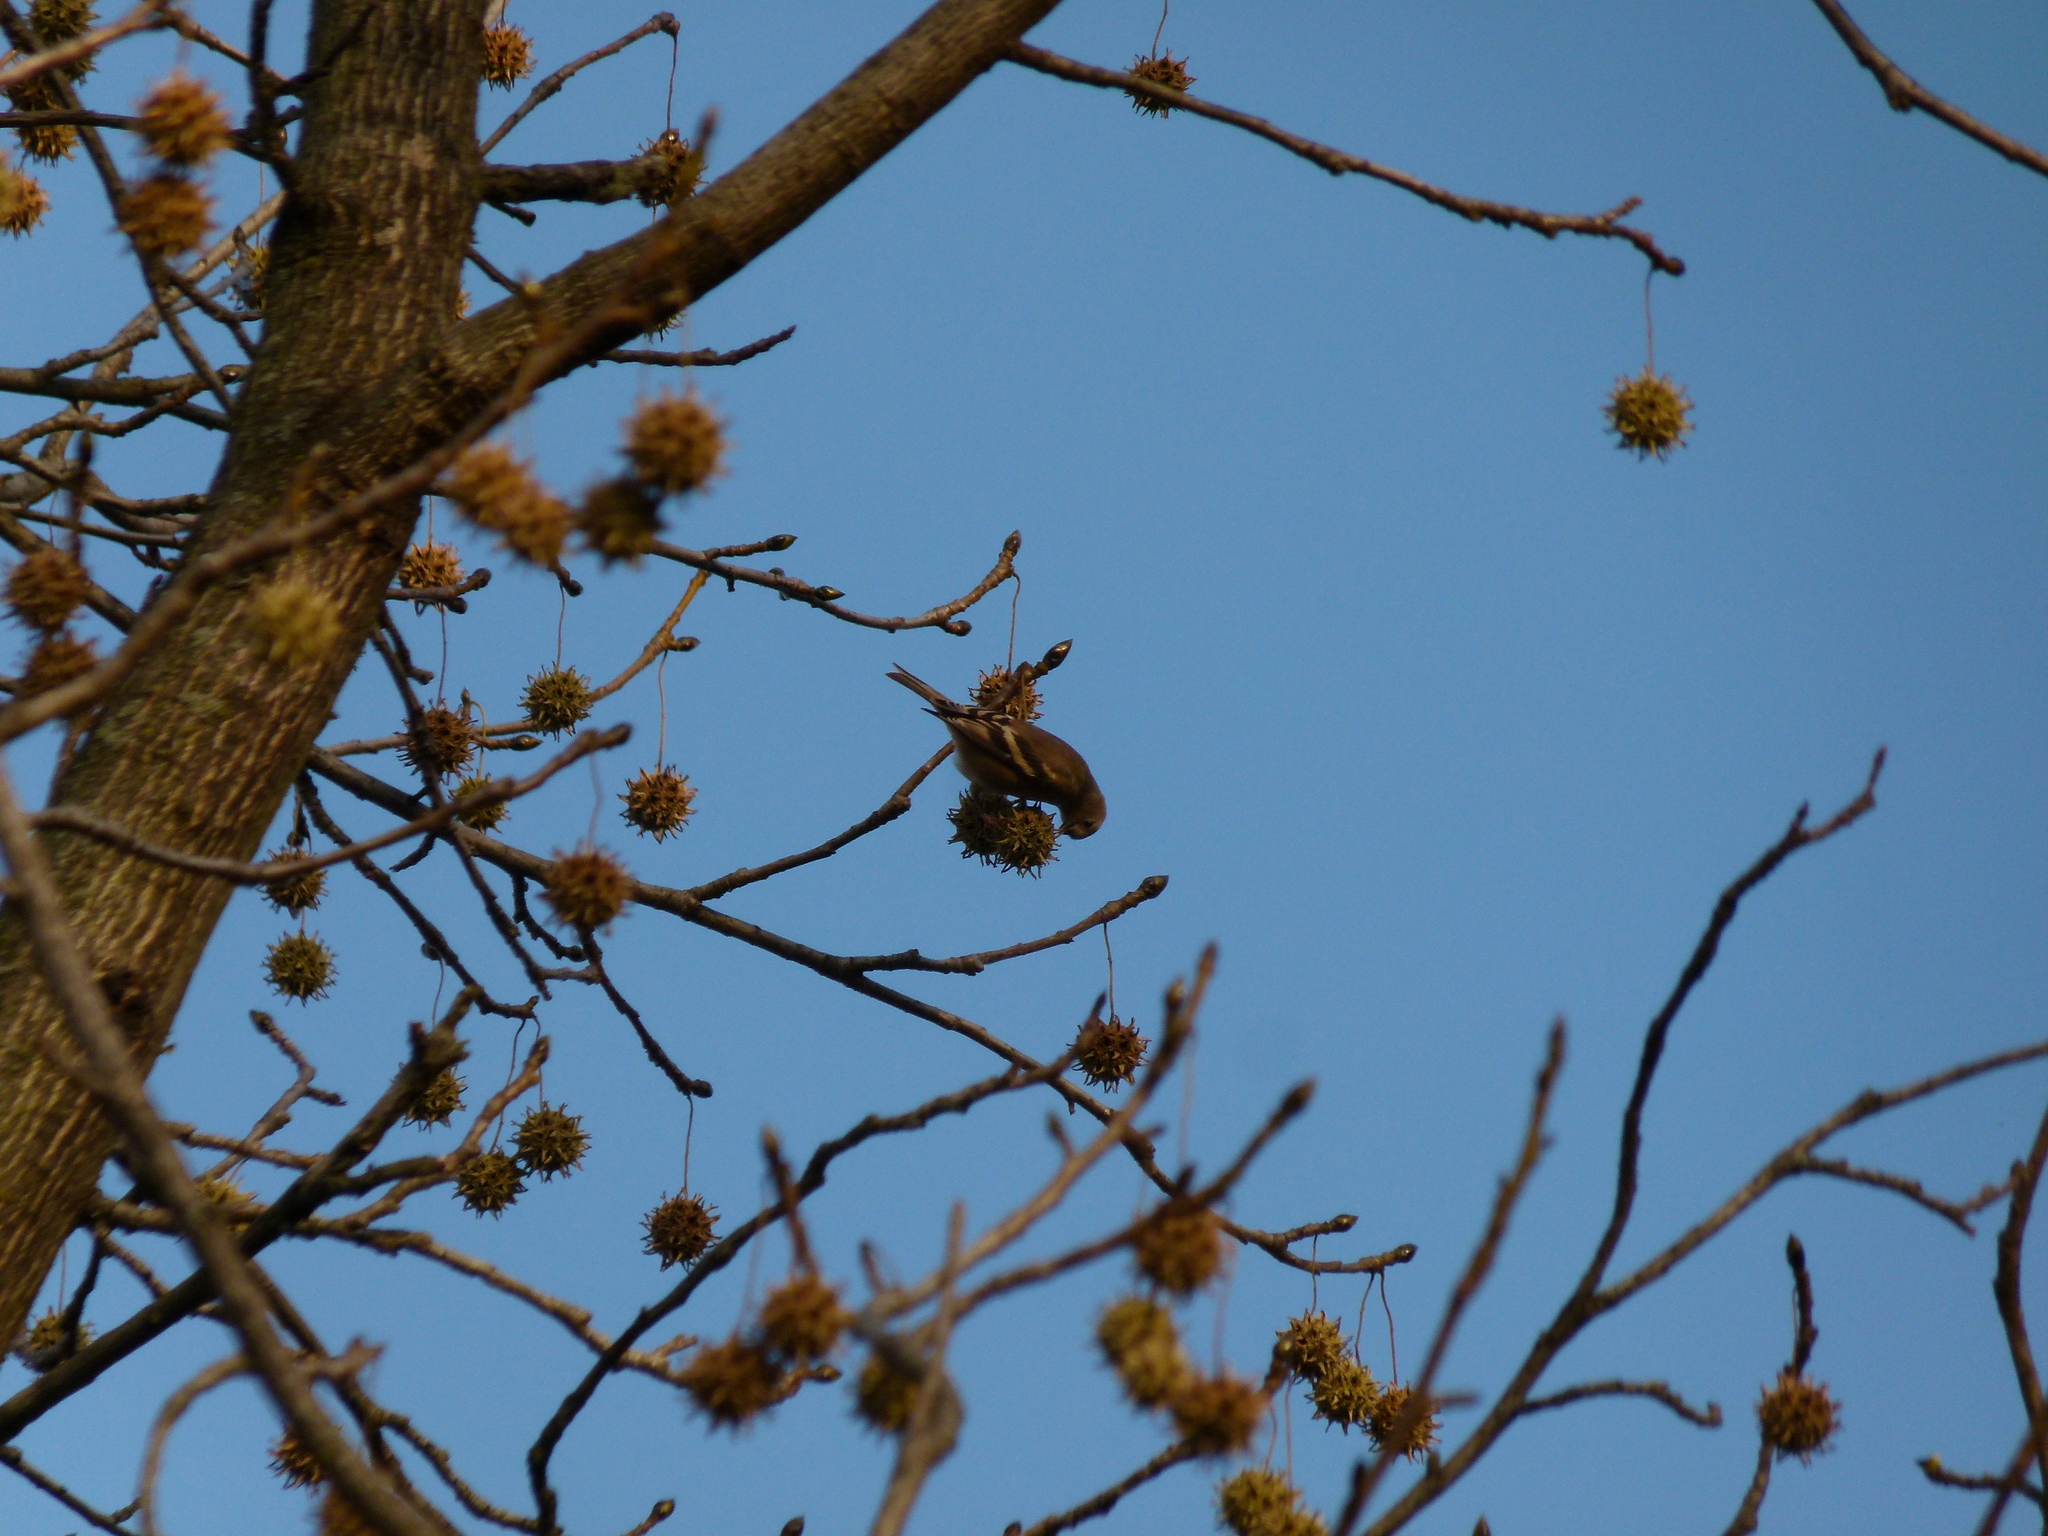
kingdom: Animalia
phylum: Chordata
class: Aves
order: Passeriformes
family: Fringillidae
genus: Spinus
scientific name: Spinus tristis
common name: American goldfinch
